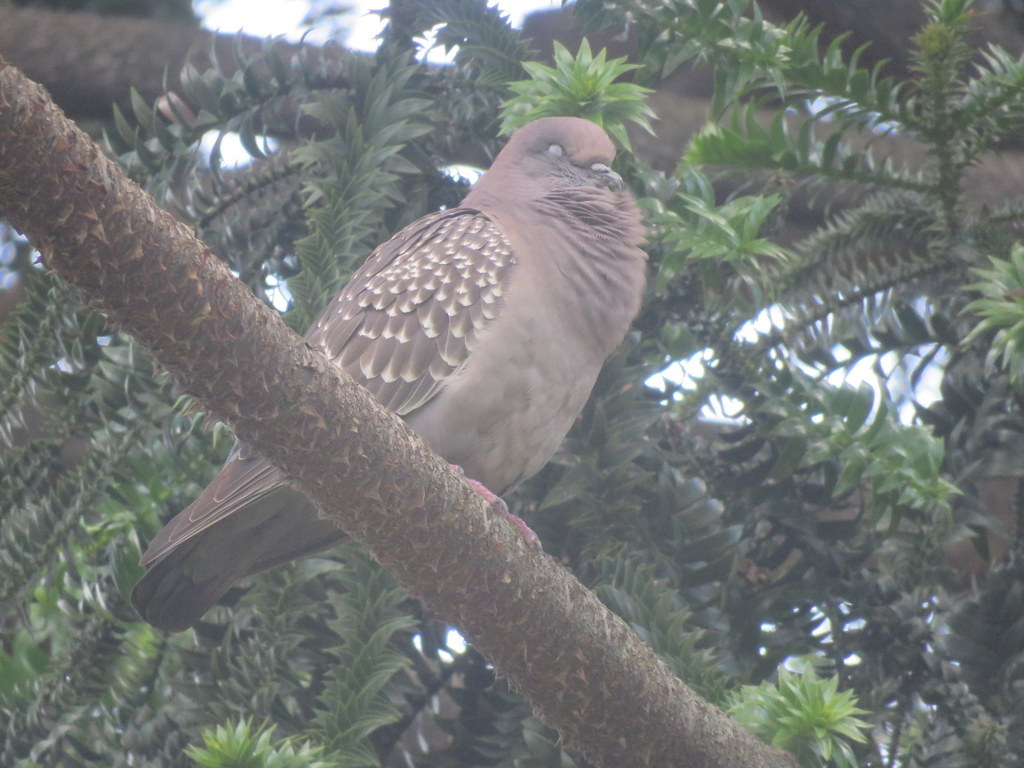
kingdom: Animalia
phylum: Chordata
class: Aves
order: Columbiformes
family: Columbidae
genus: Patagioenas
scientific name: Patagioenas maculosa
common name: Spot-winged pigeon
